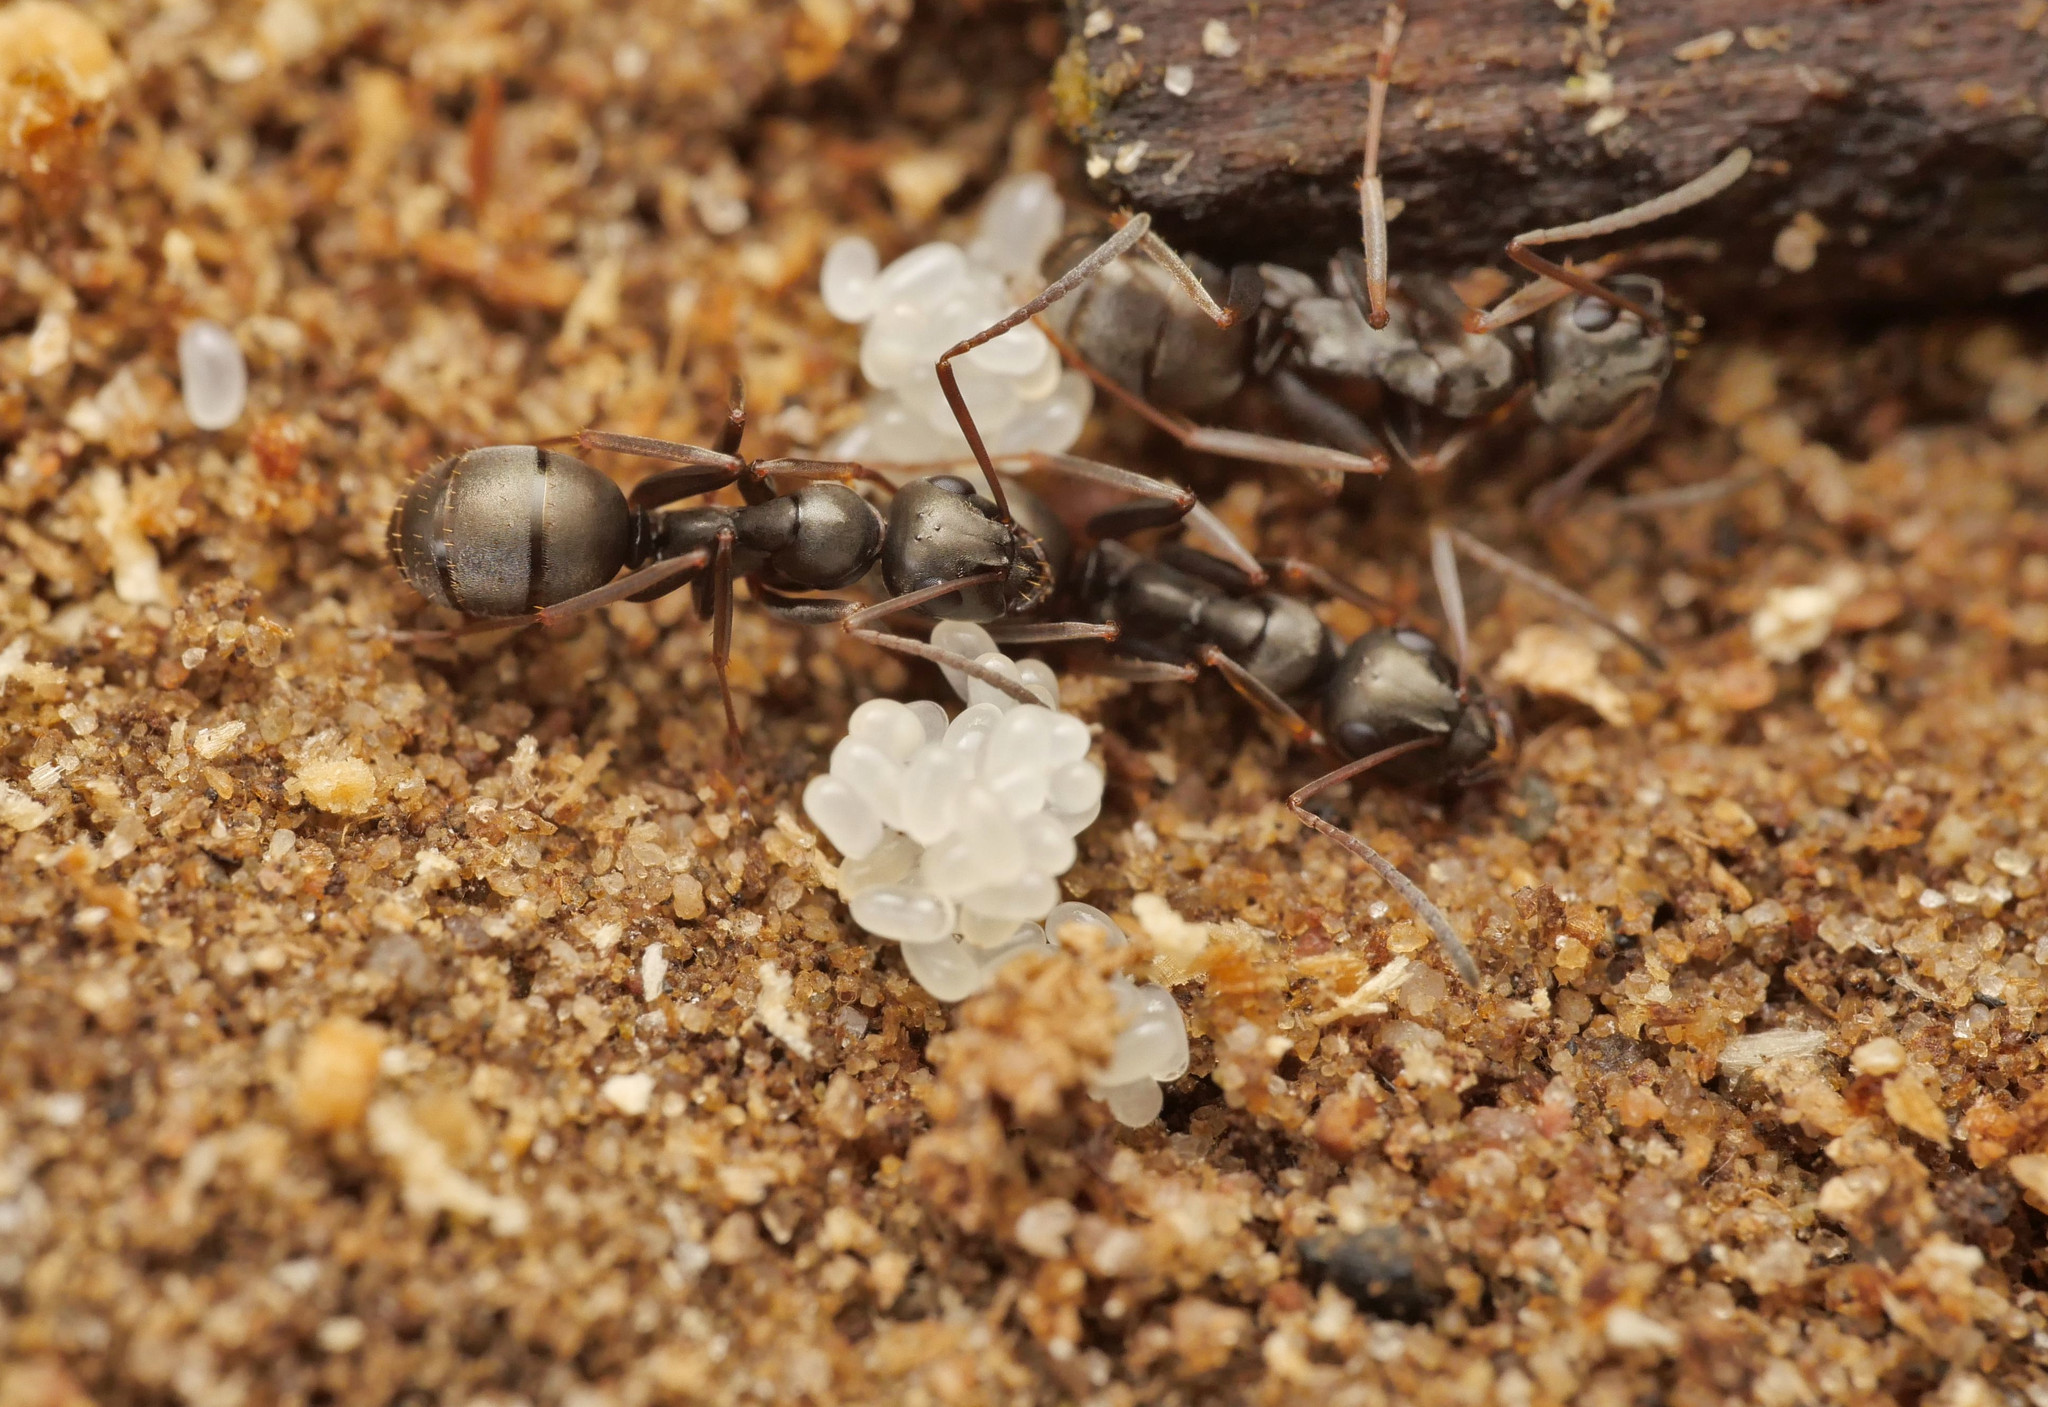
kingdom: Animalia
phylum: Arthropoda
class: Insecta
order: Hymenoptera
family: Formicidae
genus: Formica
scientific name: Formica fusca
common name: Silky ant
